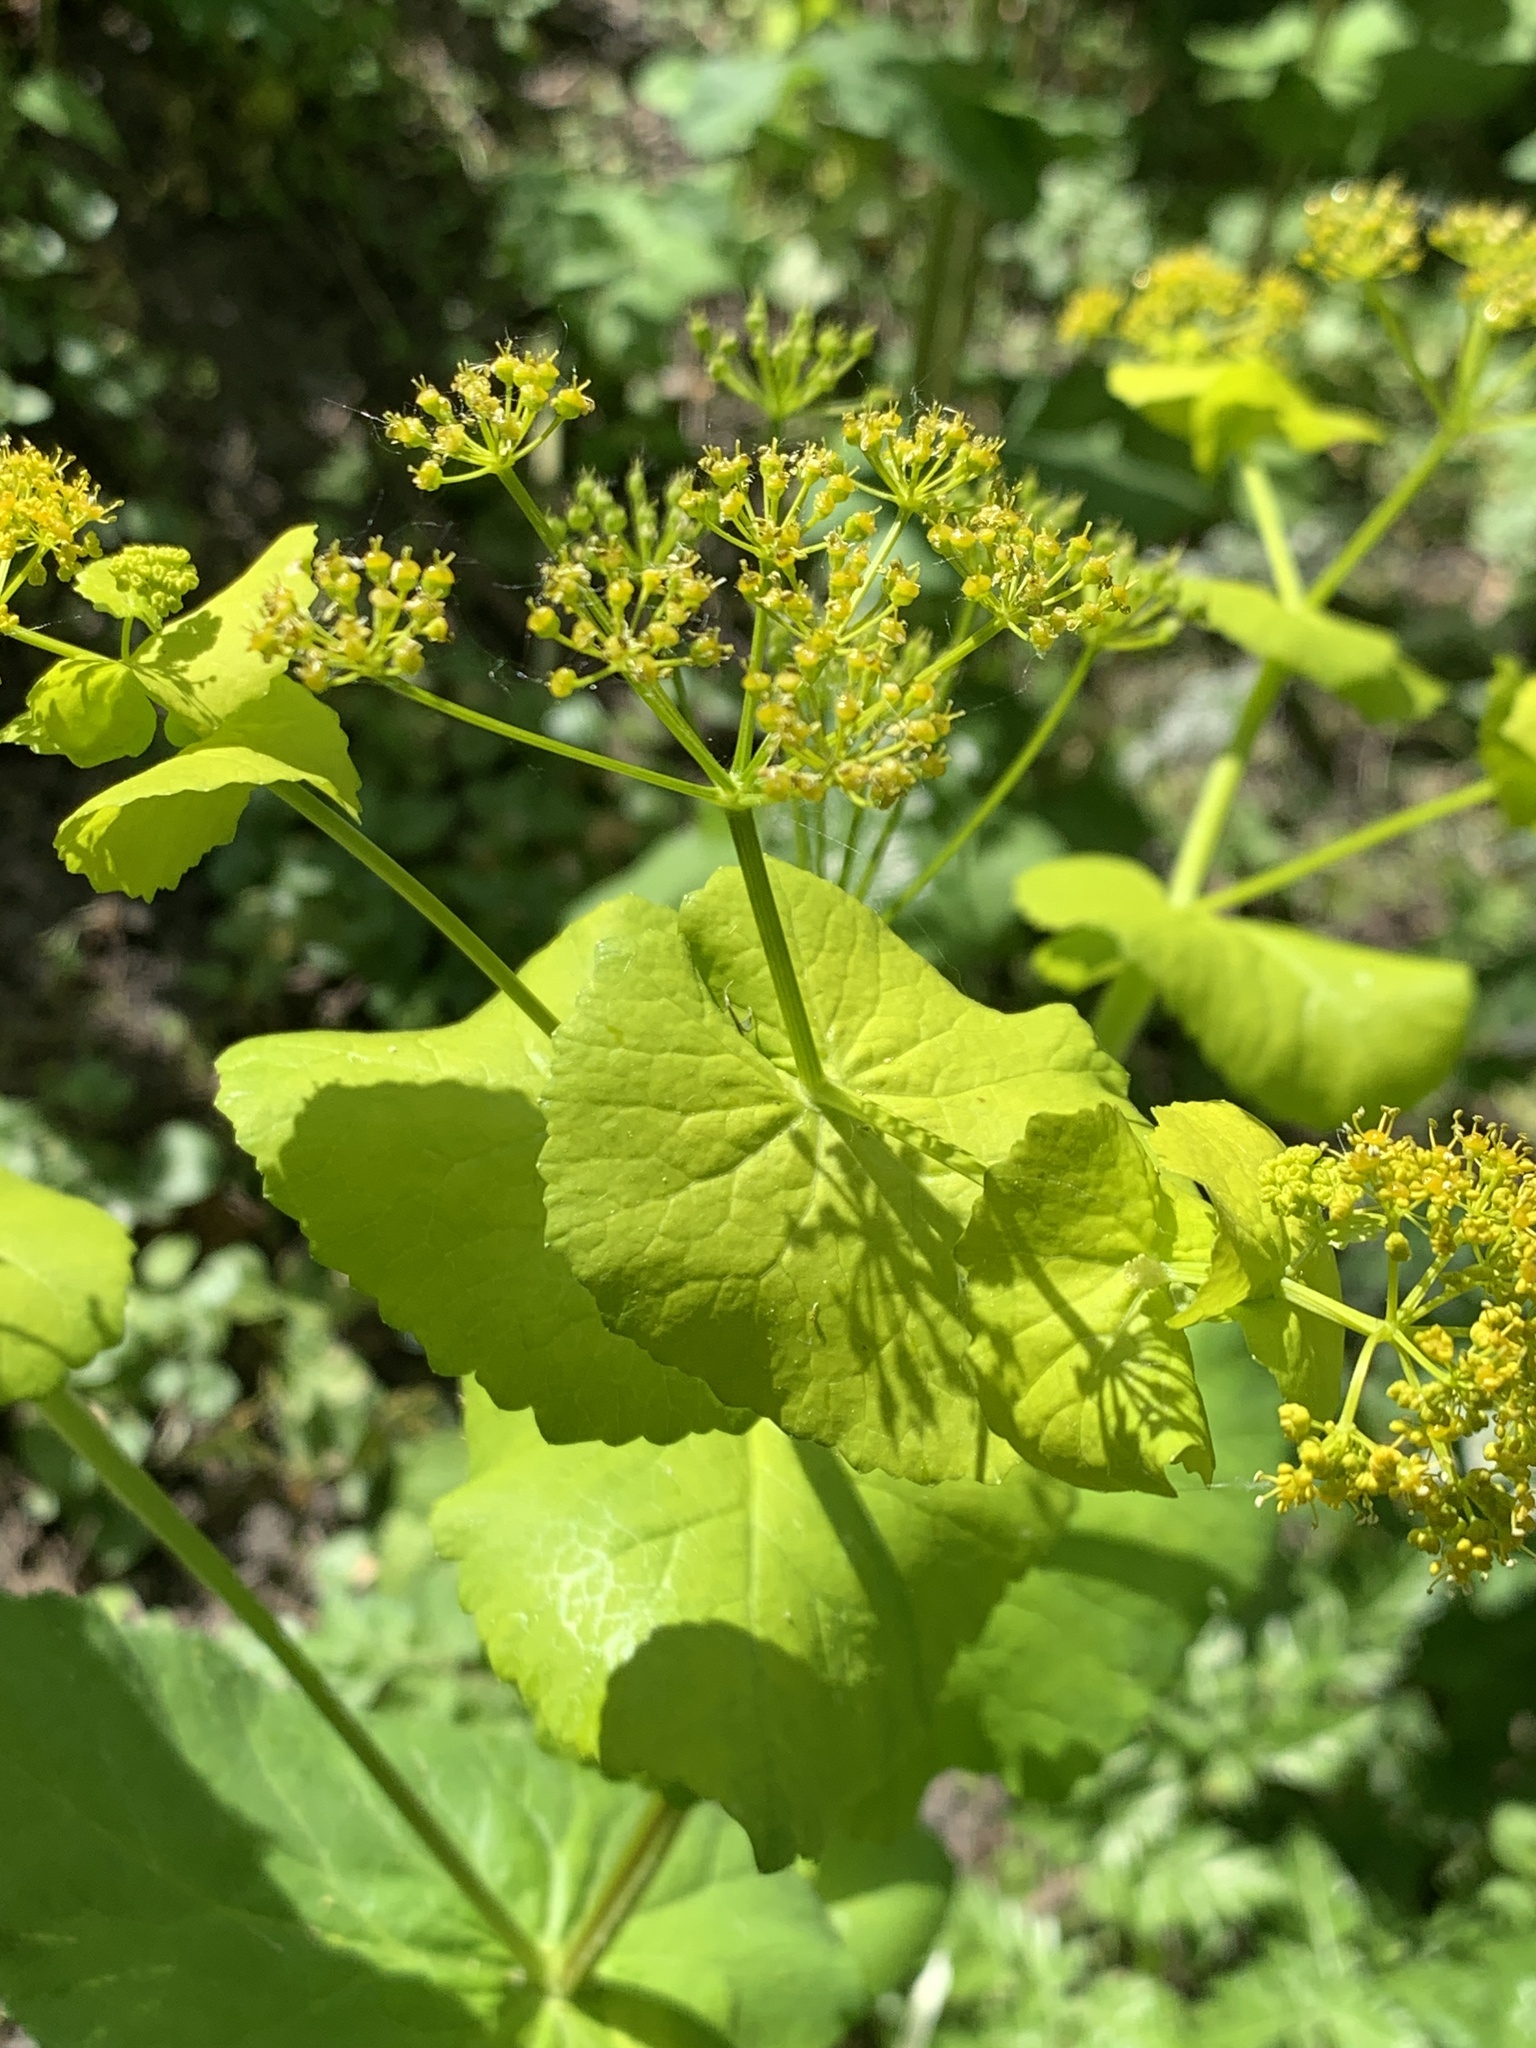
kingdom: Plantae
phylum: Tracheophyta
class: Magnoliopsida
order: Apiales
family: Apiaceae
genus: Smyrnium
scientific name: Smyrnium perfoliatum
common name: Perfoliate alexanders
